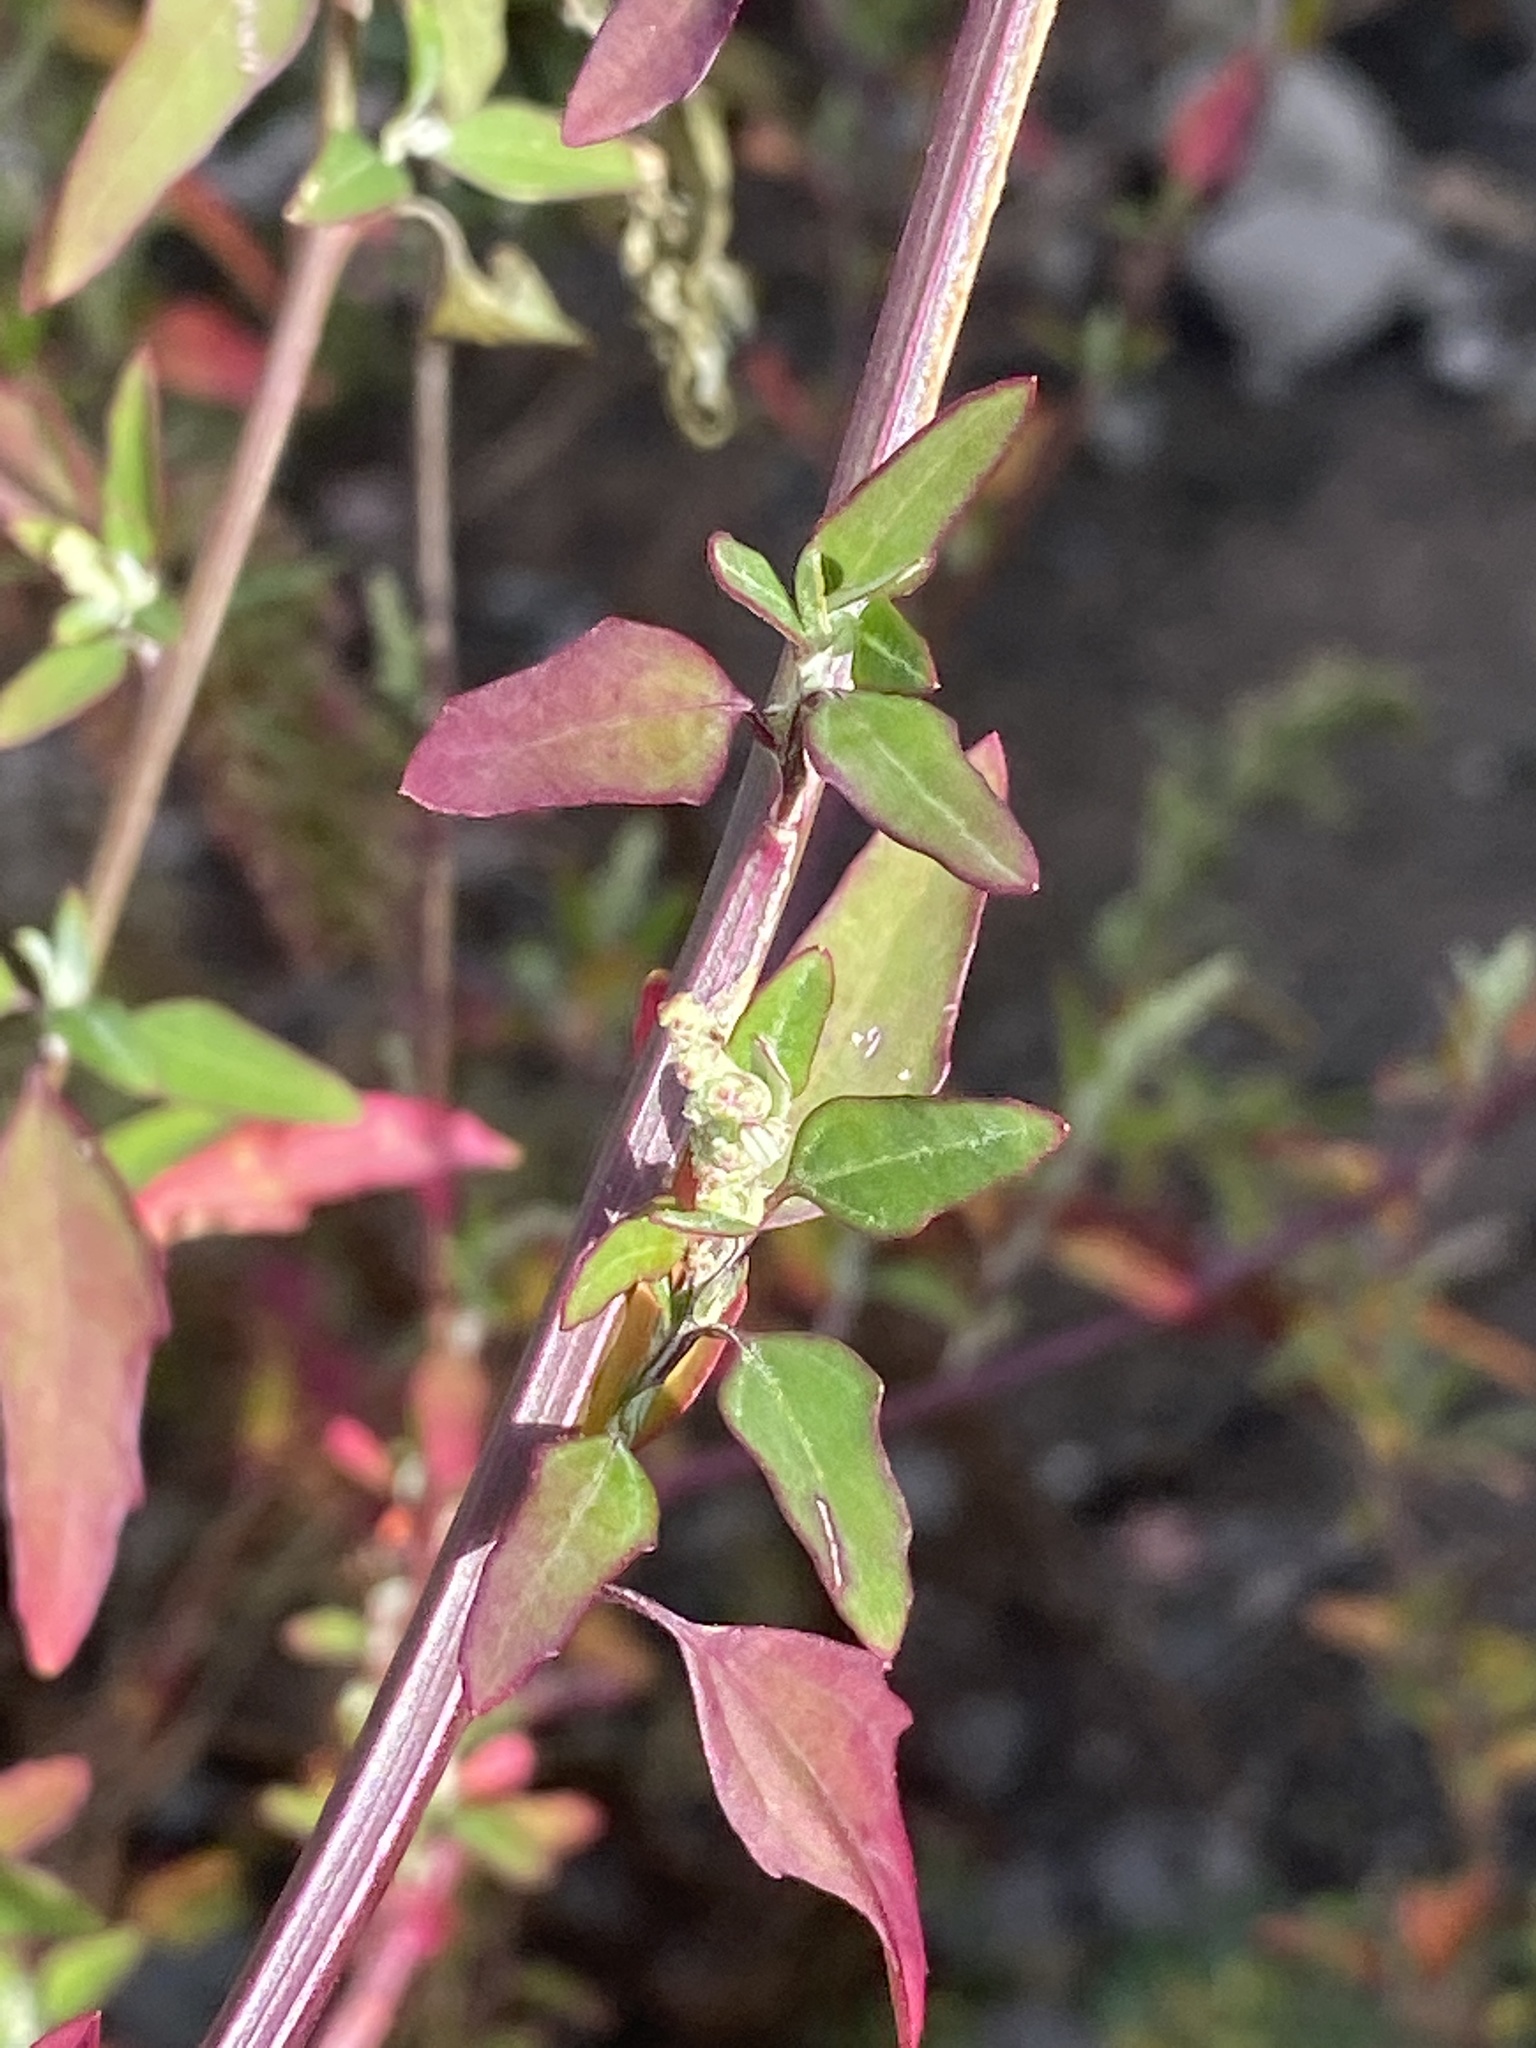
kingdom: Plantae
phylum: Tracheophyta
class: Magnoliopsida
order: Caryophyllales
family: Amaranthaceae
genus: Chenopodium
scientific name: Chenopodium album
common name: Fat-hen
